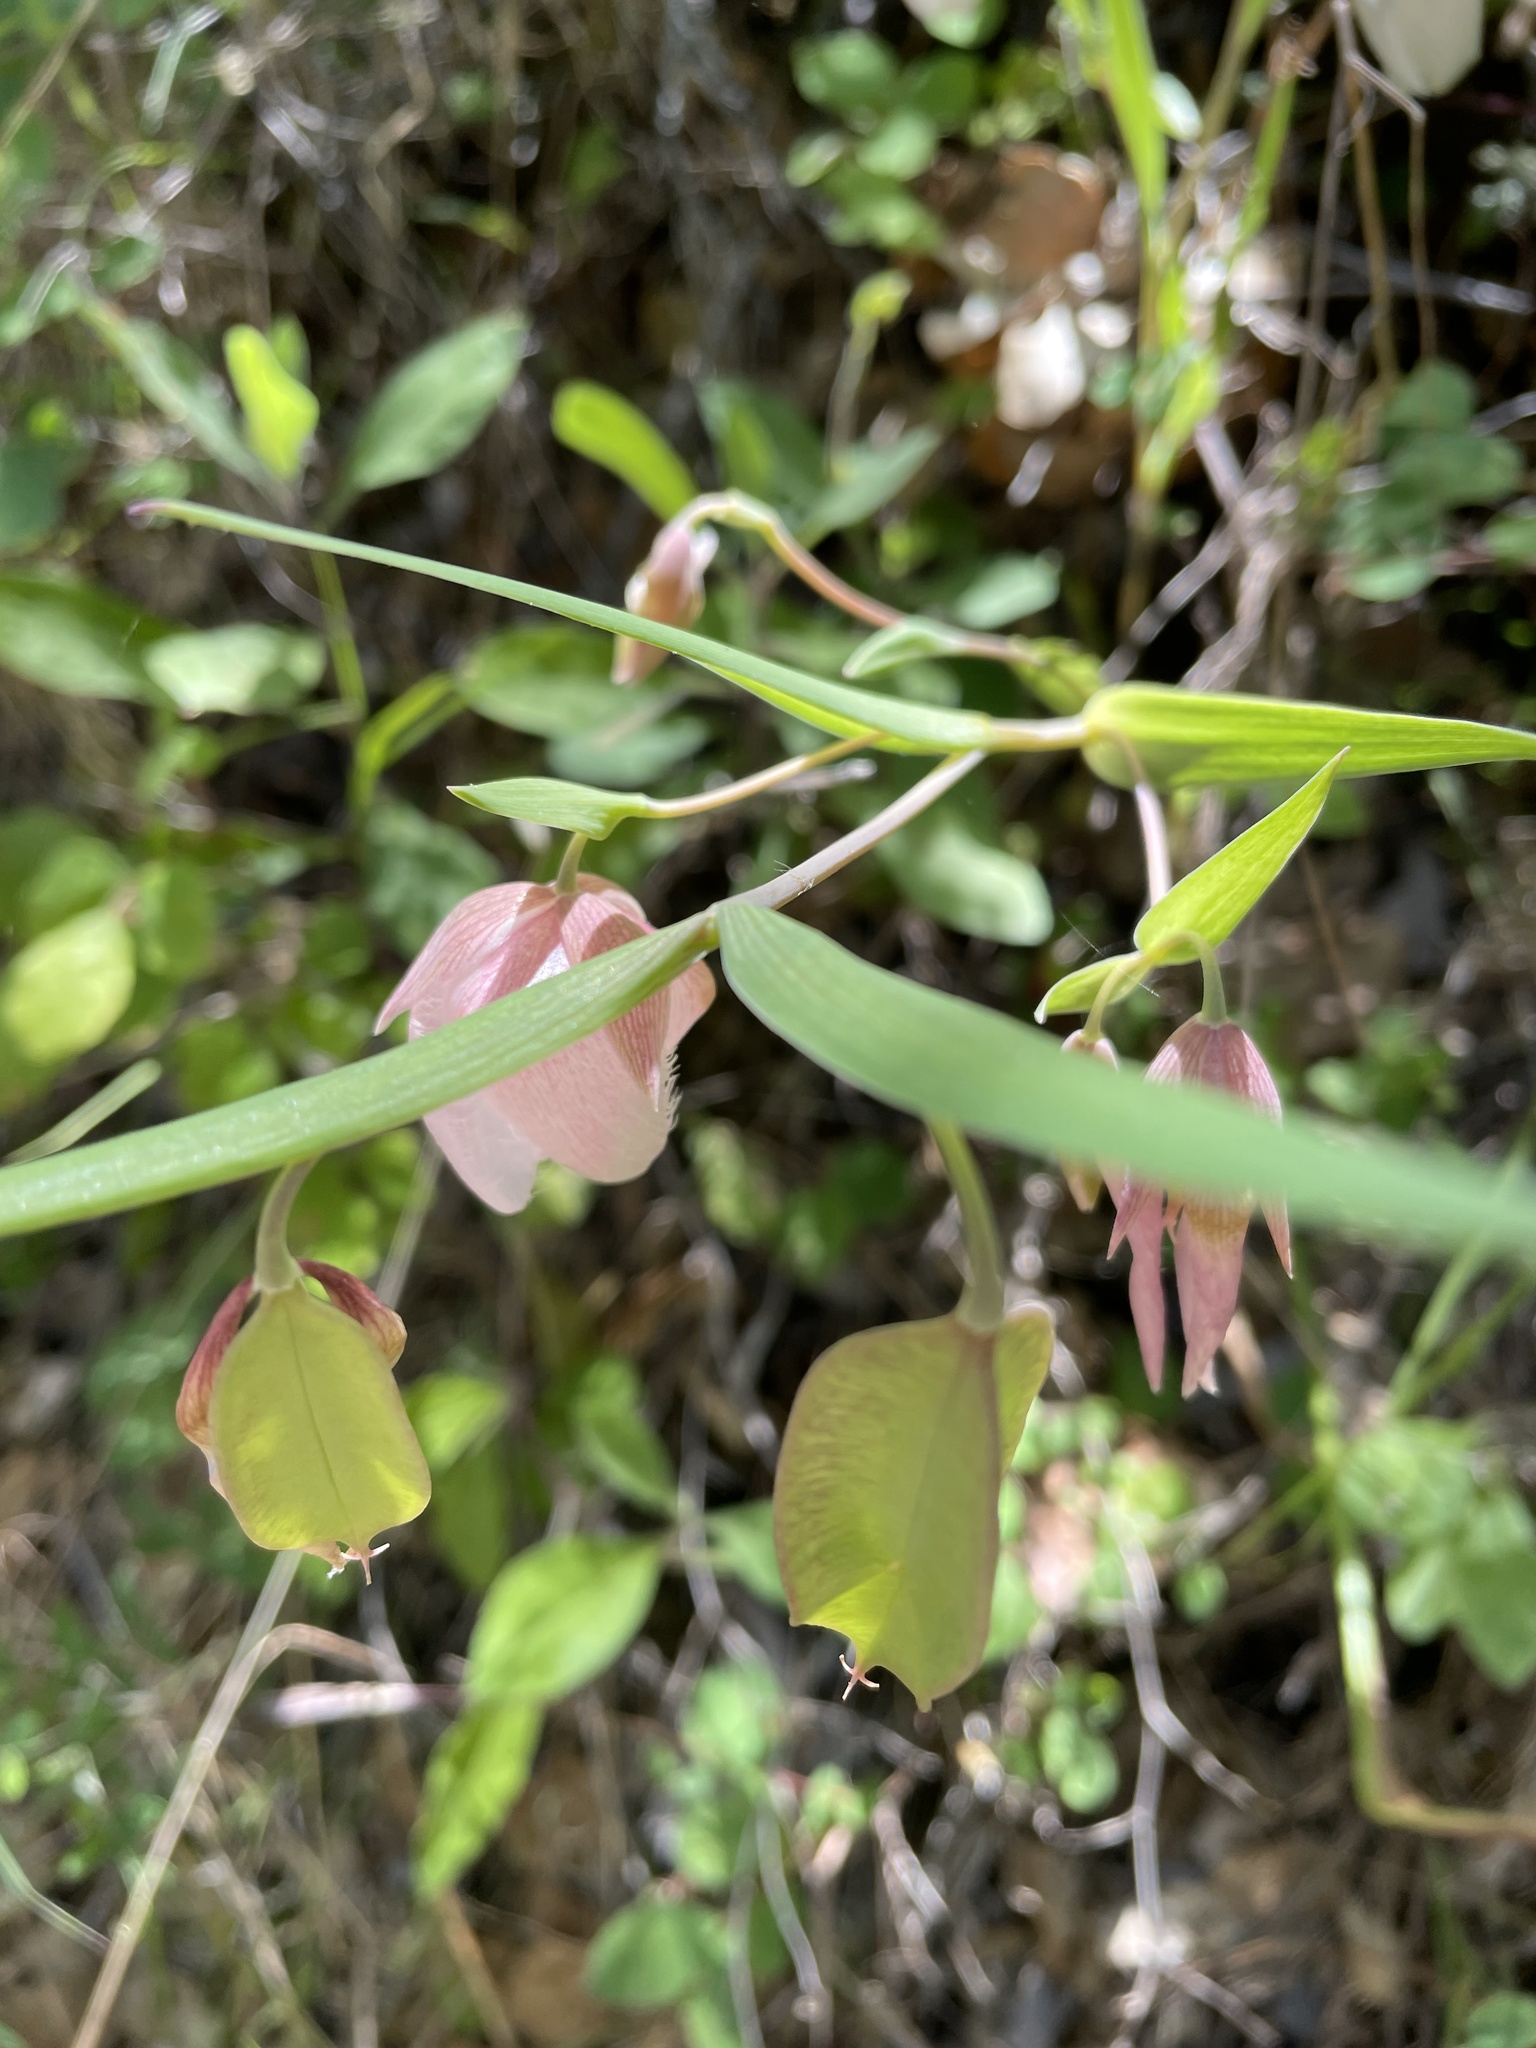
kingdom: Plantae
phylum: Tracheophyta
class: Liliopsida
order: Liliales
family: Liliaceae
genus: Calochortus
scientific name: Calochortus albus
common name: Fairy-lantern
